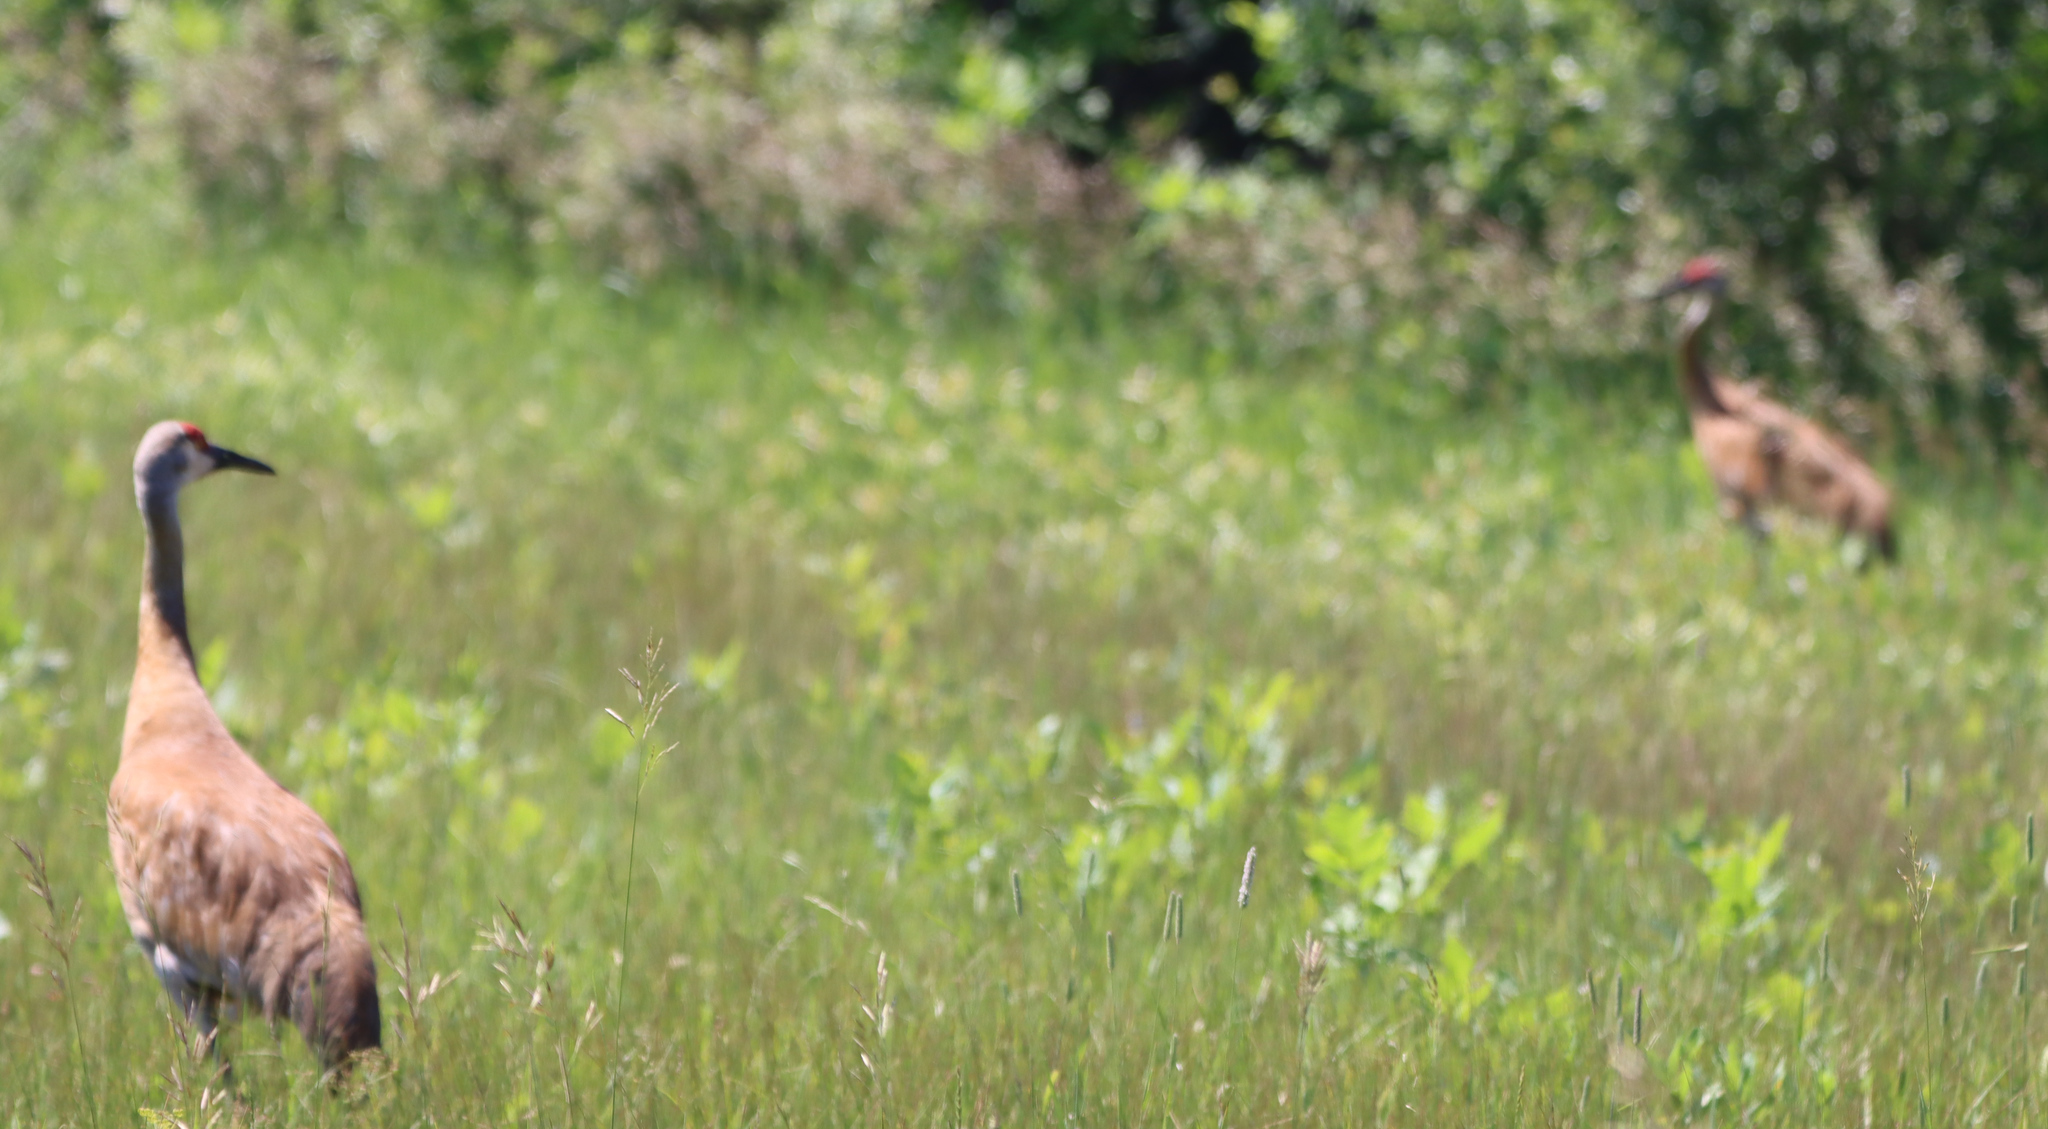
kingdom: Animalia
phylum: Chordata
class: Aves
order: Gruiformes
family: Gruidae
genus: Grus
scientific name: Grus canadensis
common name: Sandhill crane
